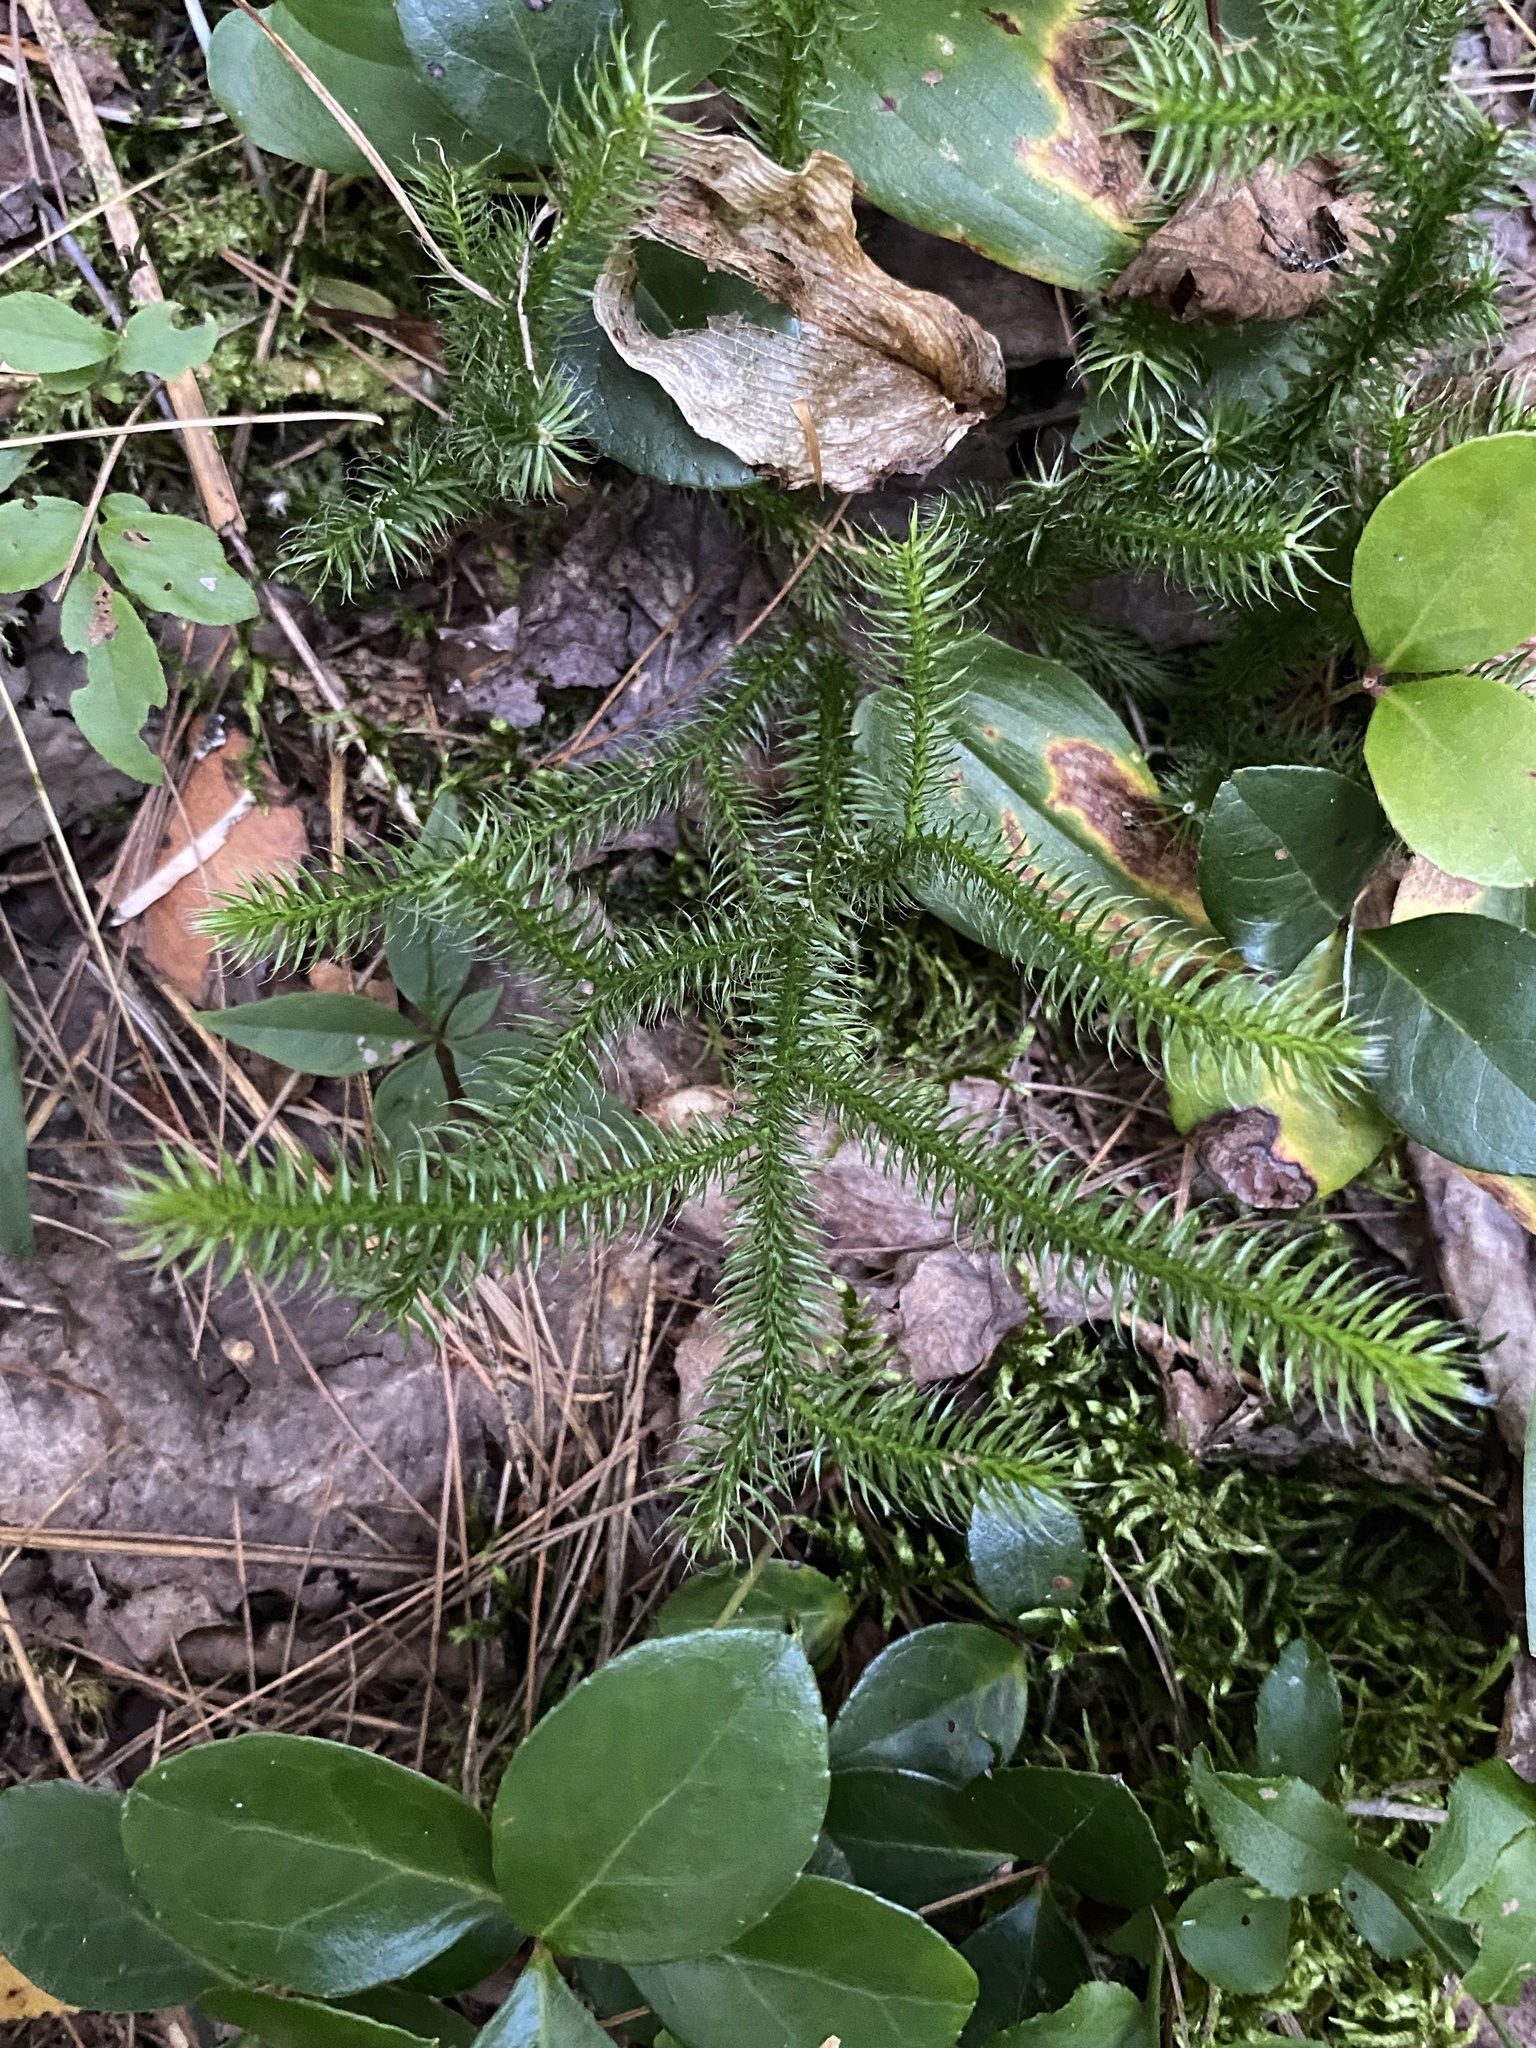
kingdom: Plantae
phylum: Tracheophyta
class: Lycopodiopsida
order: Lycopodiales
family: Lycopodiaceae
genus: Lycopodium
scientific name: Lycopodium clavatum
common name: Stag's-horn clubmoss
